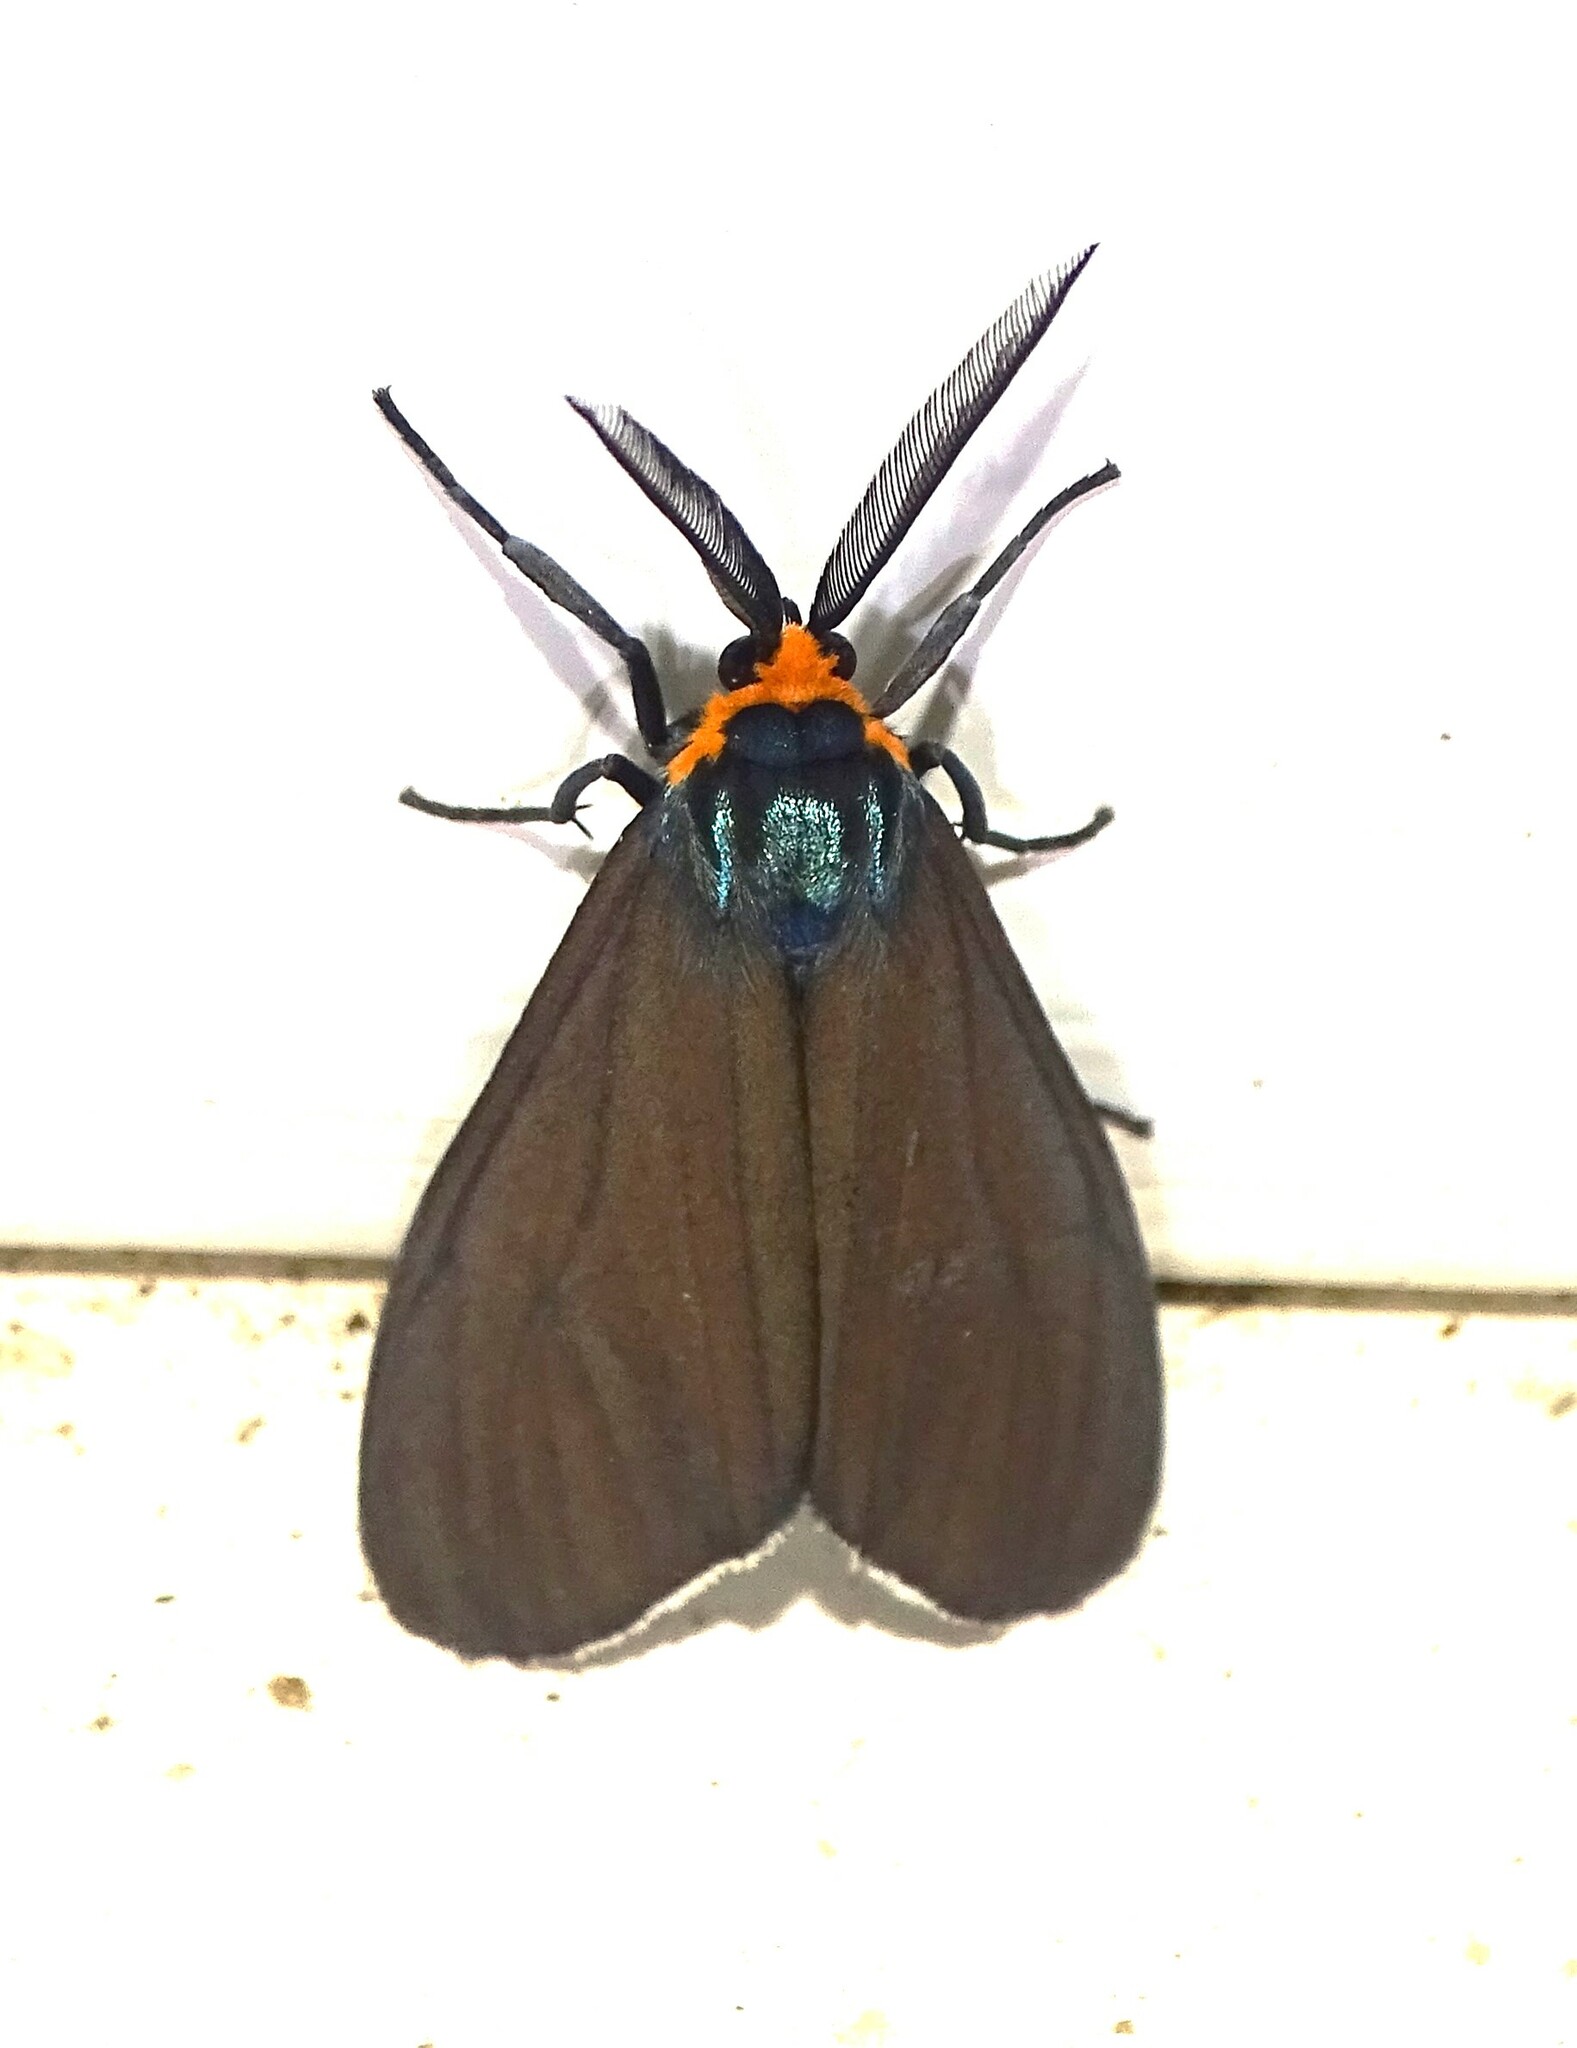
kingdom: Animalia
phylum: Arthropoda
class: Insecta
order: Lepidoptera
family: Erebidae
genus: Ctenucha
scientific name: Ctenucha virginica
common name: Virginia ctenucha moth
